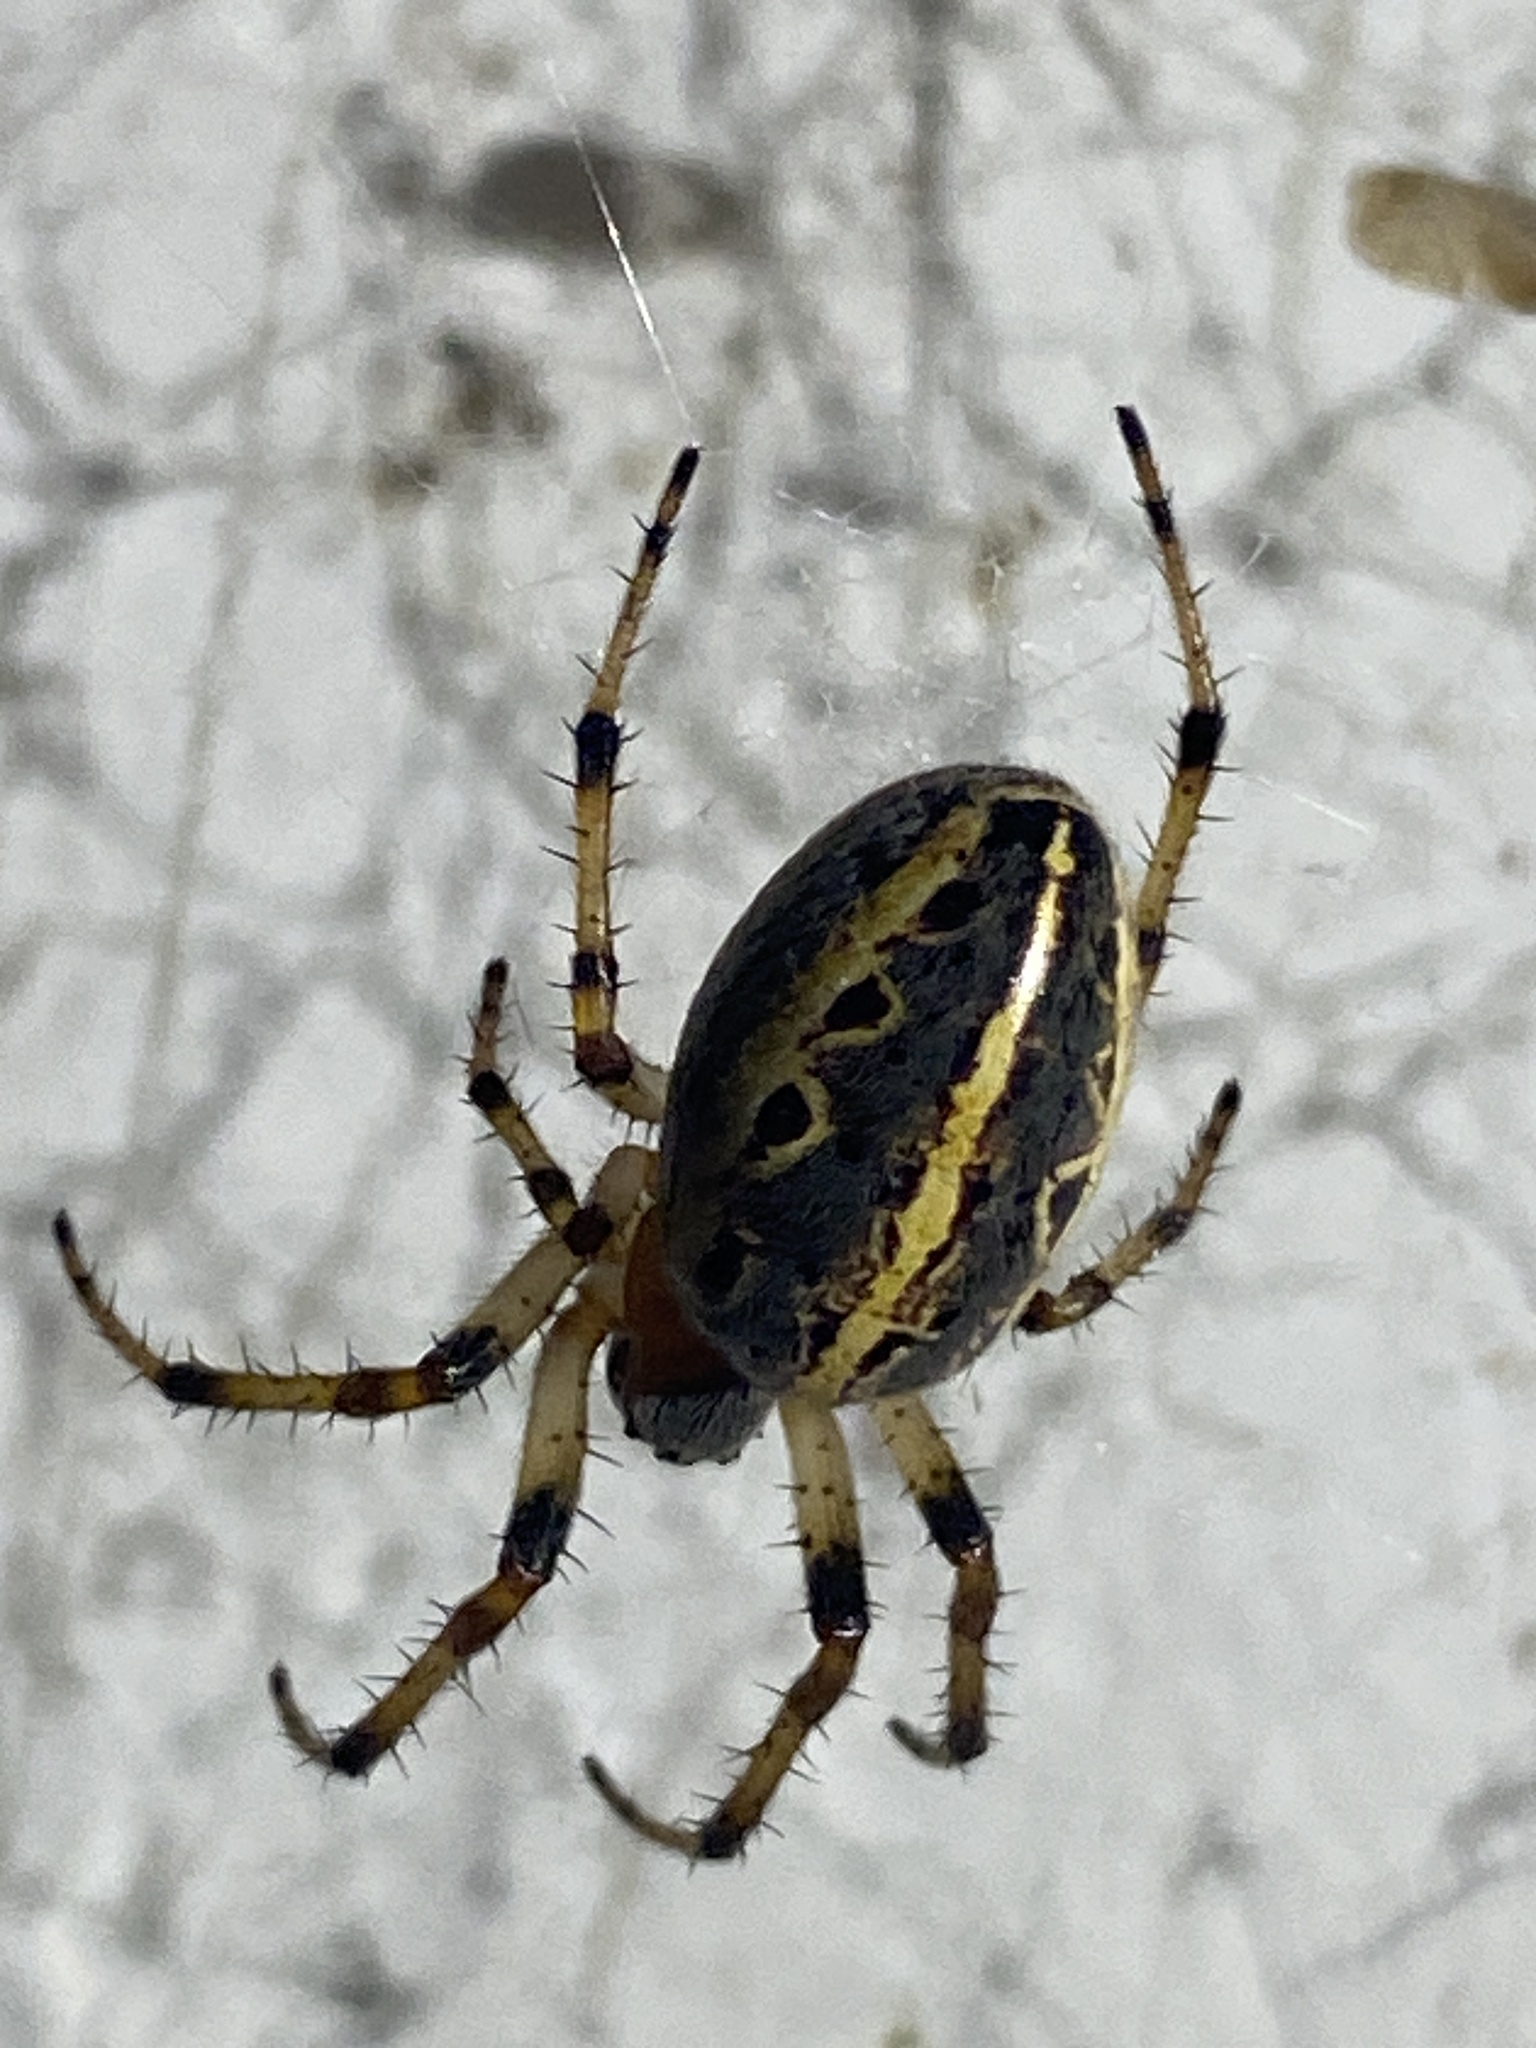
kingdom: Animalia
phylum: Arthropoda
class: Arachnida
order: Araneae
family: Araneidae
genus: Alpaida
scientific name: Alpaida veniliae
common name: Orb weavers
